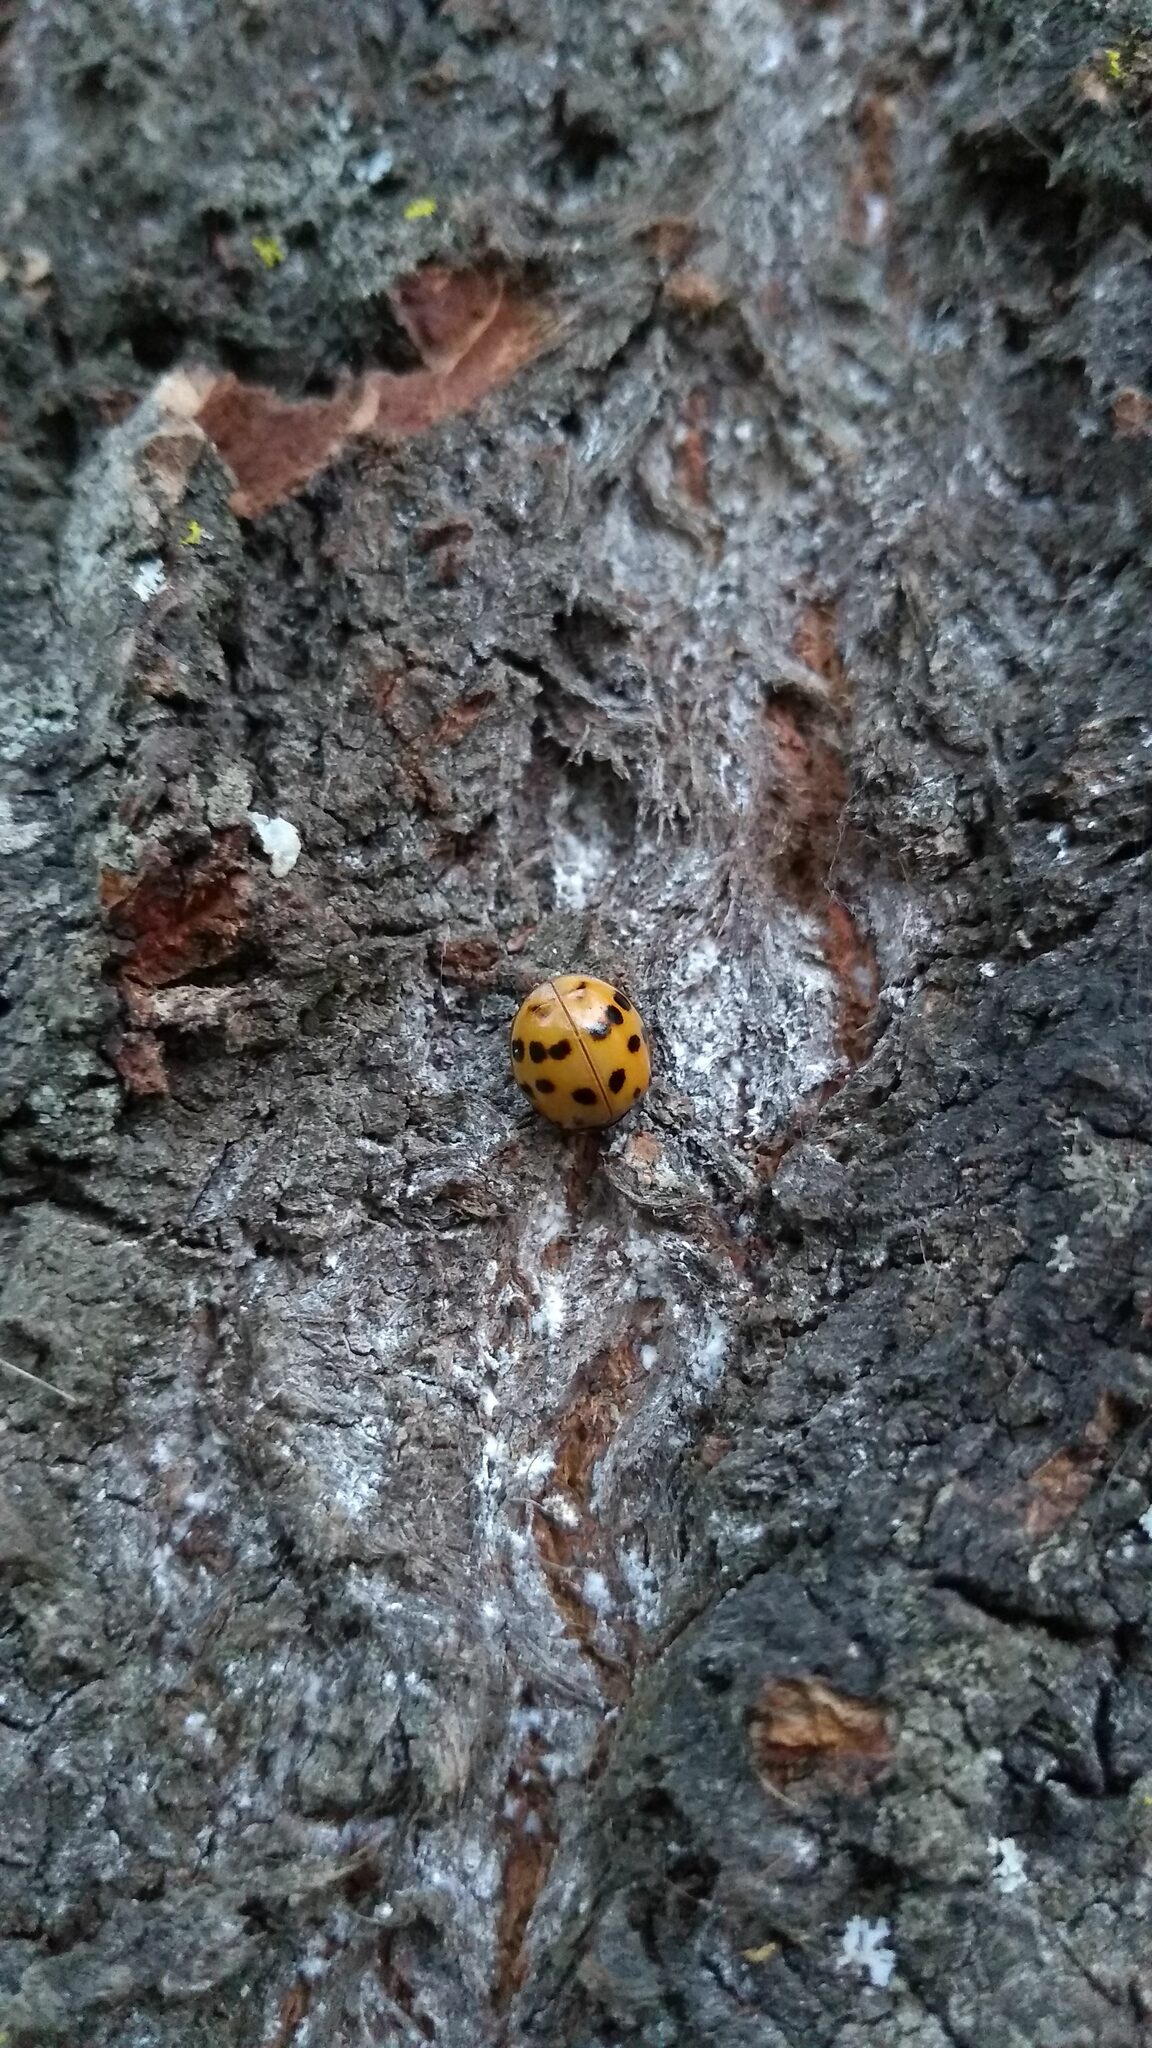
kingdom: Animalia
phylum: Arthropoda
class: Insecta
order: Coleoptera
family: Coccinellidae
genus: Harmonia
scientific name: Harmonia axyridis
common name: Harlequin ladybird
